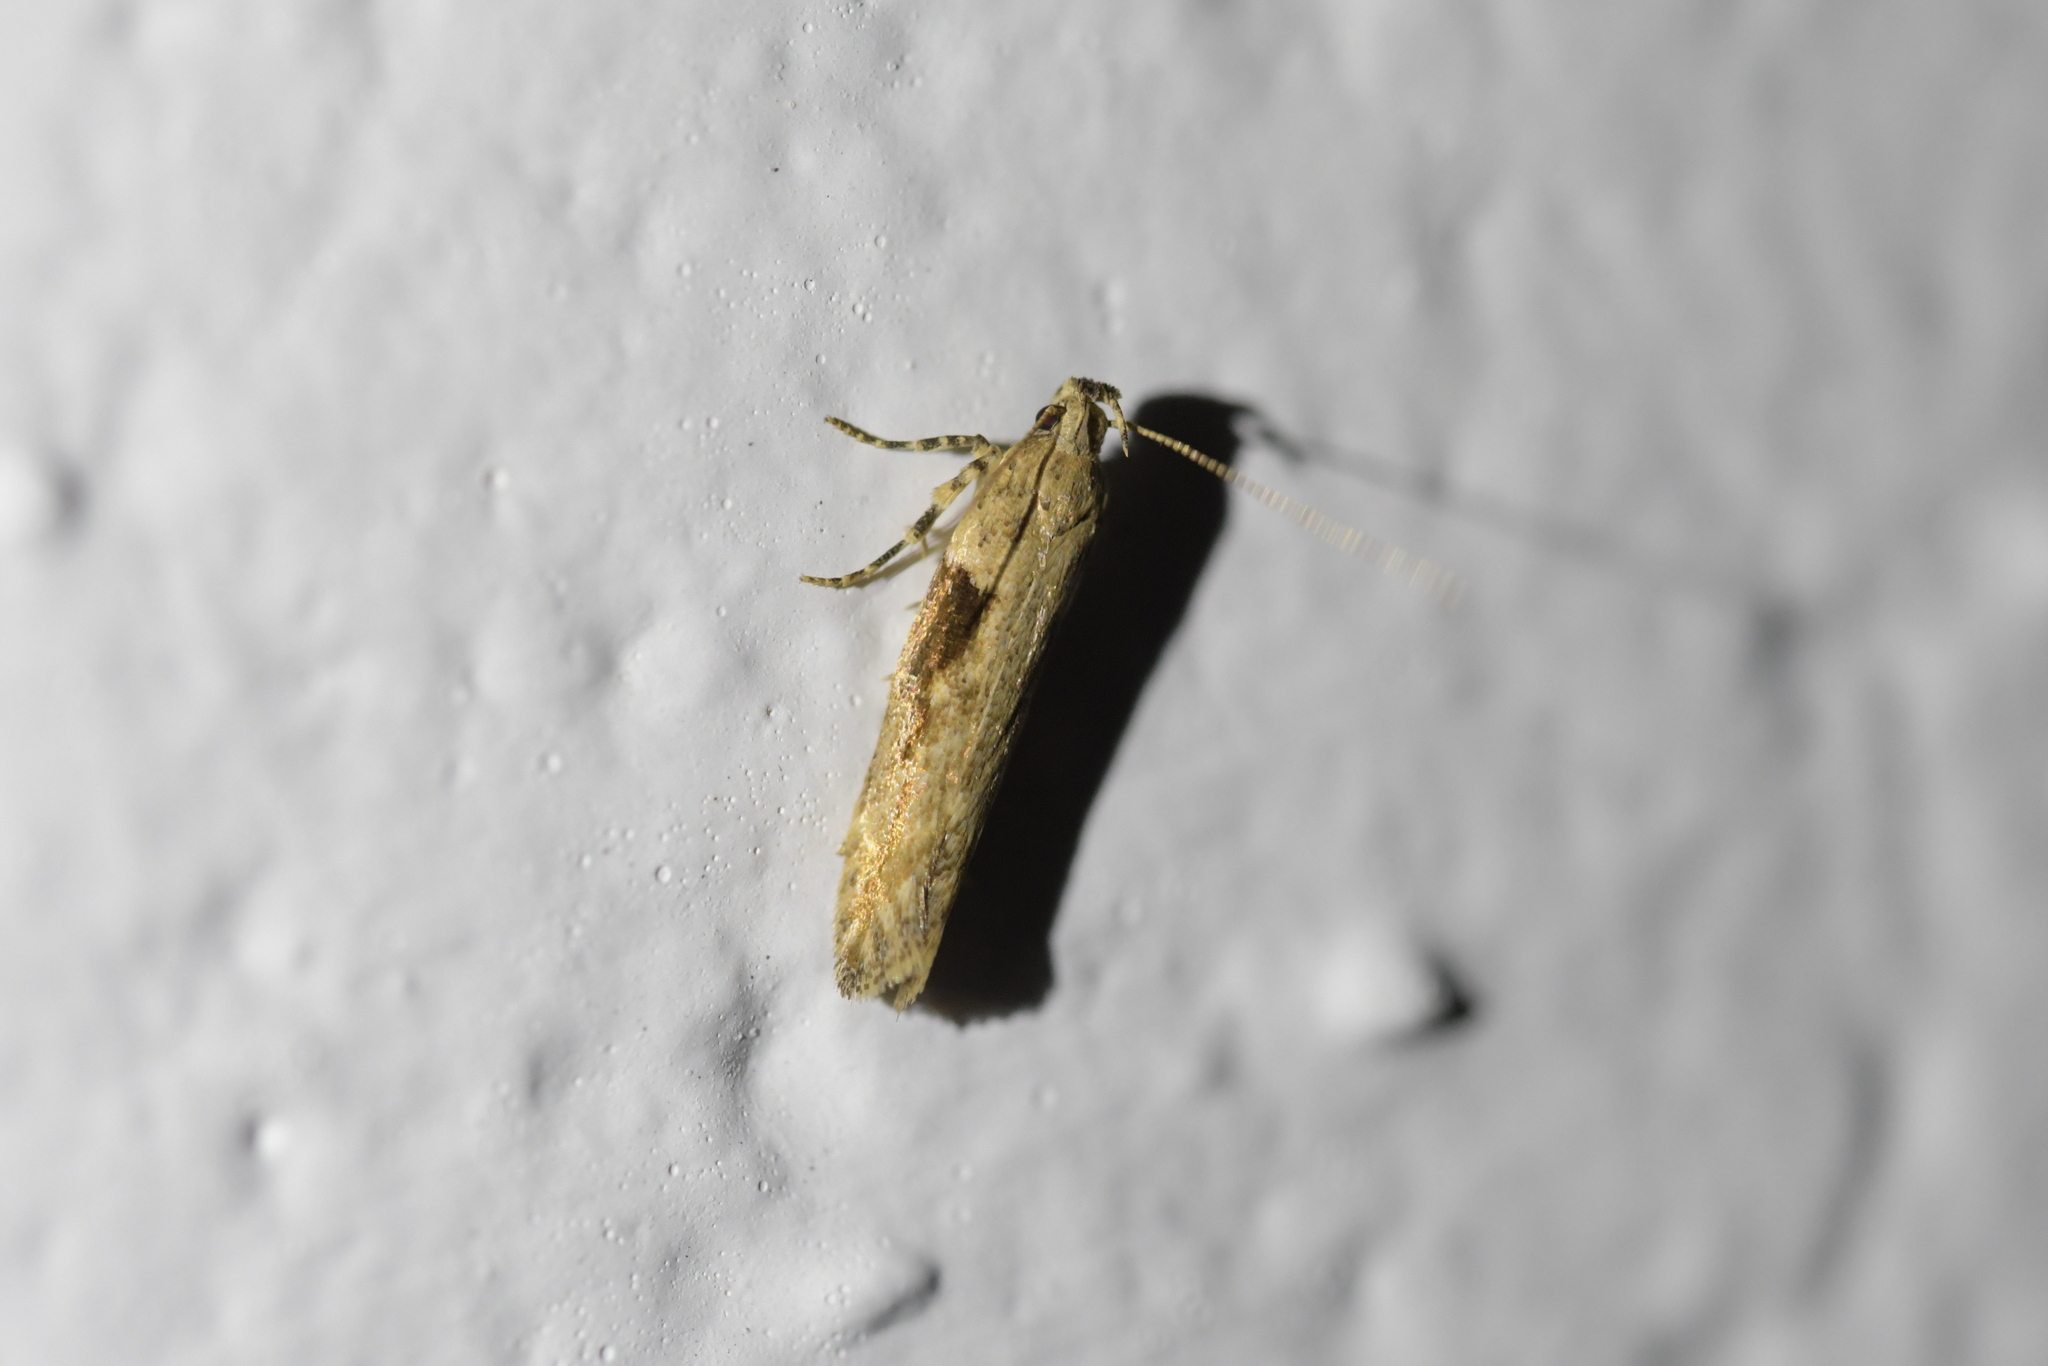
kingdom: Animalia
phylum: Arthropoda
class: Insecta
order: Lepidoptera
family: Gelechiidae
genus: Symmetrischema
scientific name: Symmetrischema tangolias
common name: Moth
